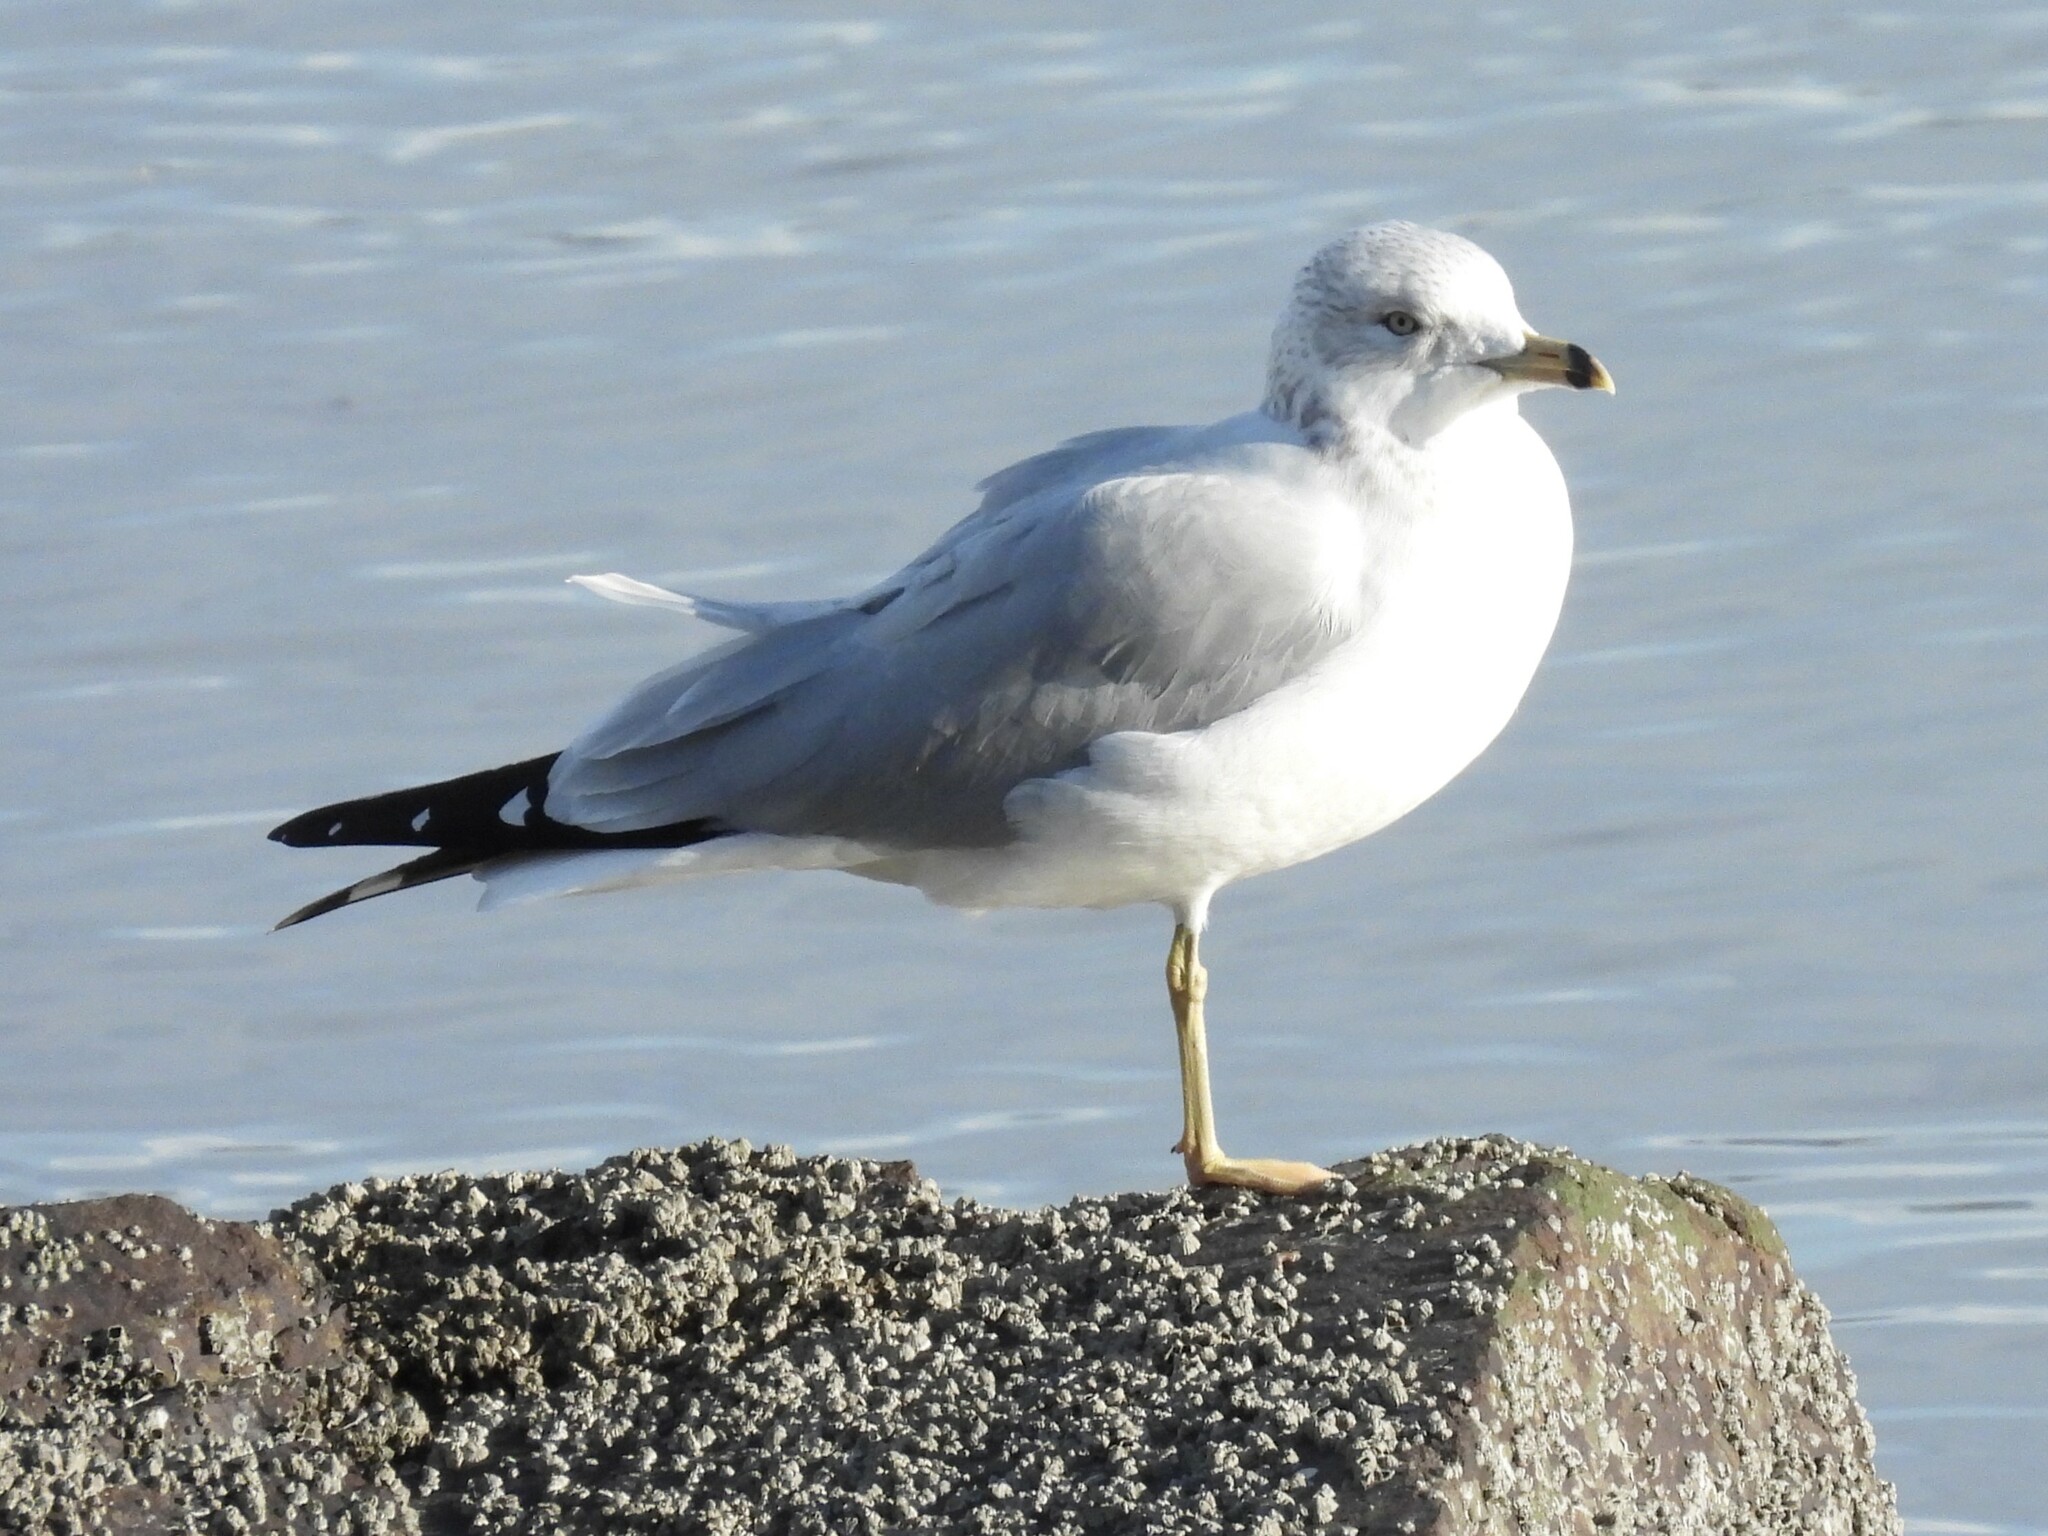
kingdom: Animalia
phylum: Chordata
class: Aves
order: Charadriiformes
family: Laridae
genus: Larus
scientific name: Larus delawarensis
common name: Ring-billed gull
